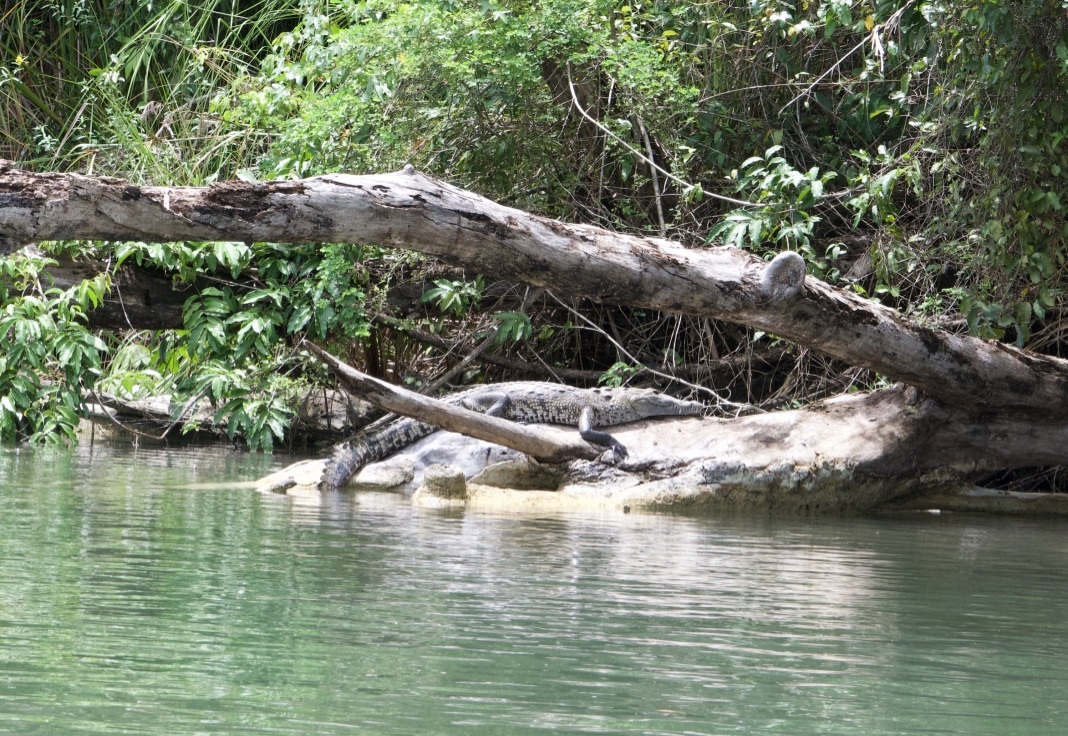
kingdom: Animalia
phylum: Chordata
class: Crocodylia
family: Crocodylidae
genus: Crocodylus
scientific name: Crocodylus moreletii
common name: Morelet's crocodile
